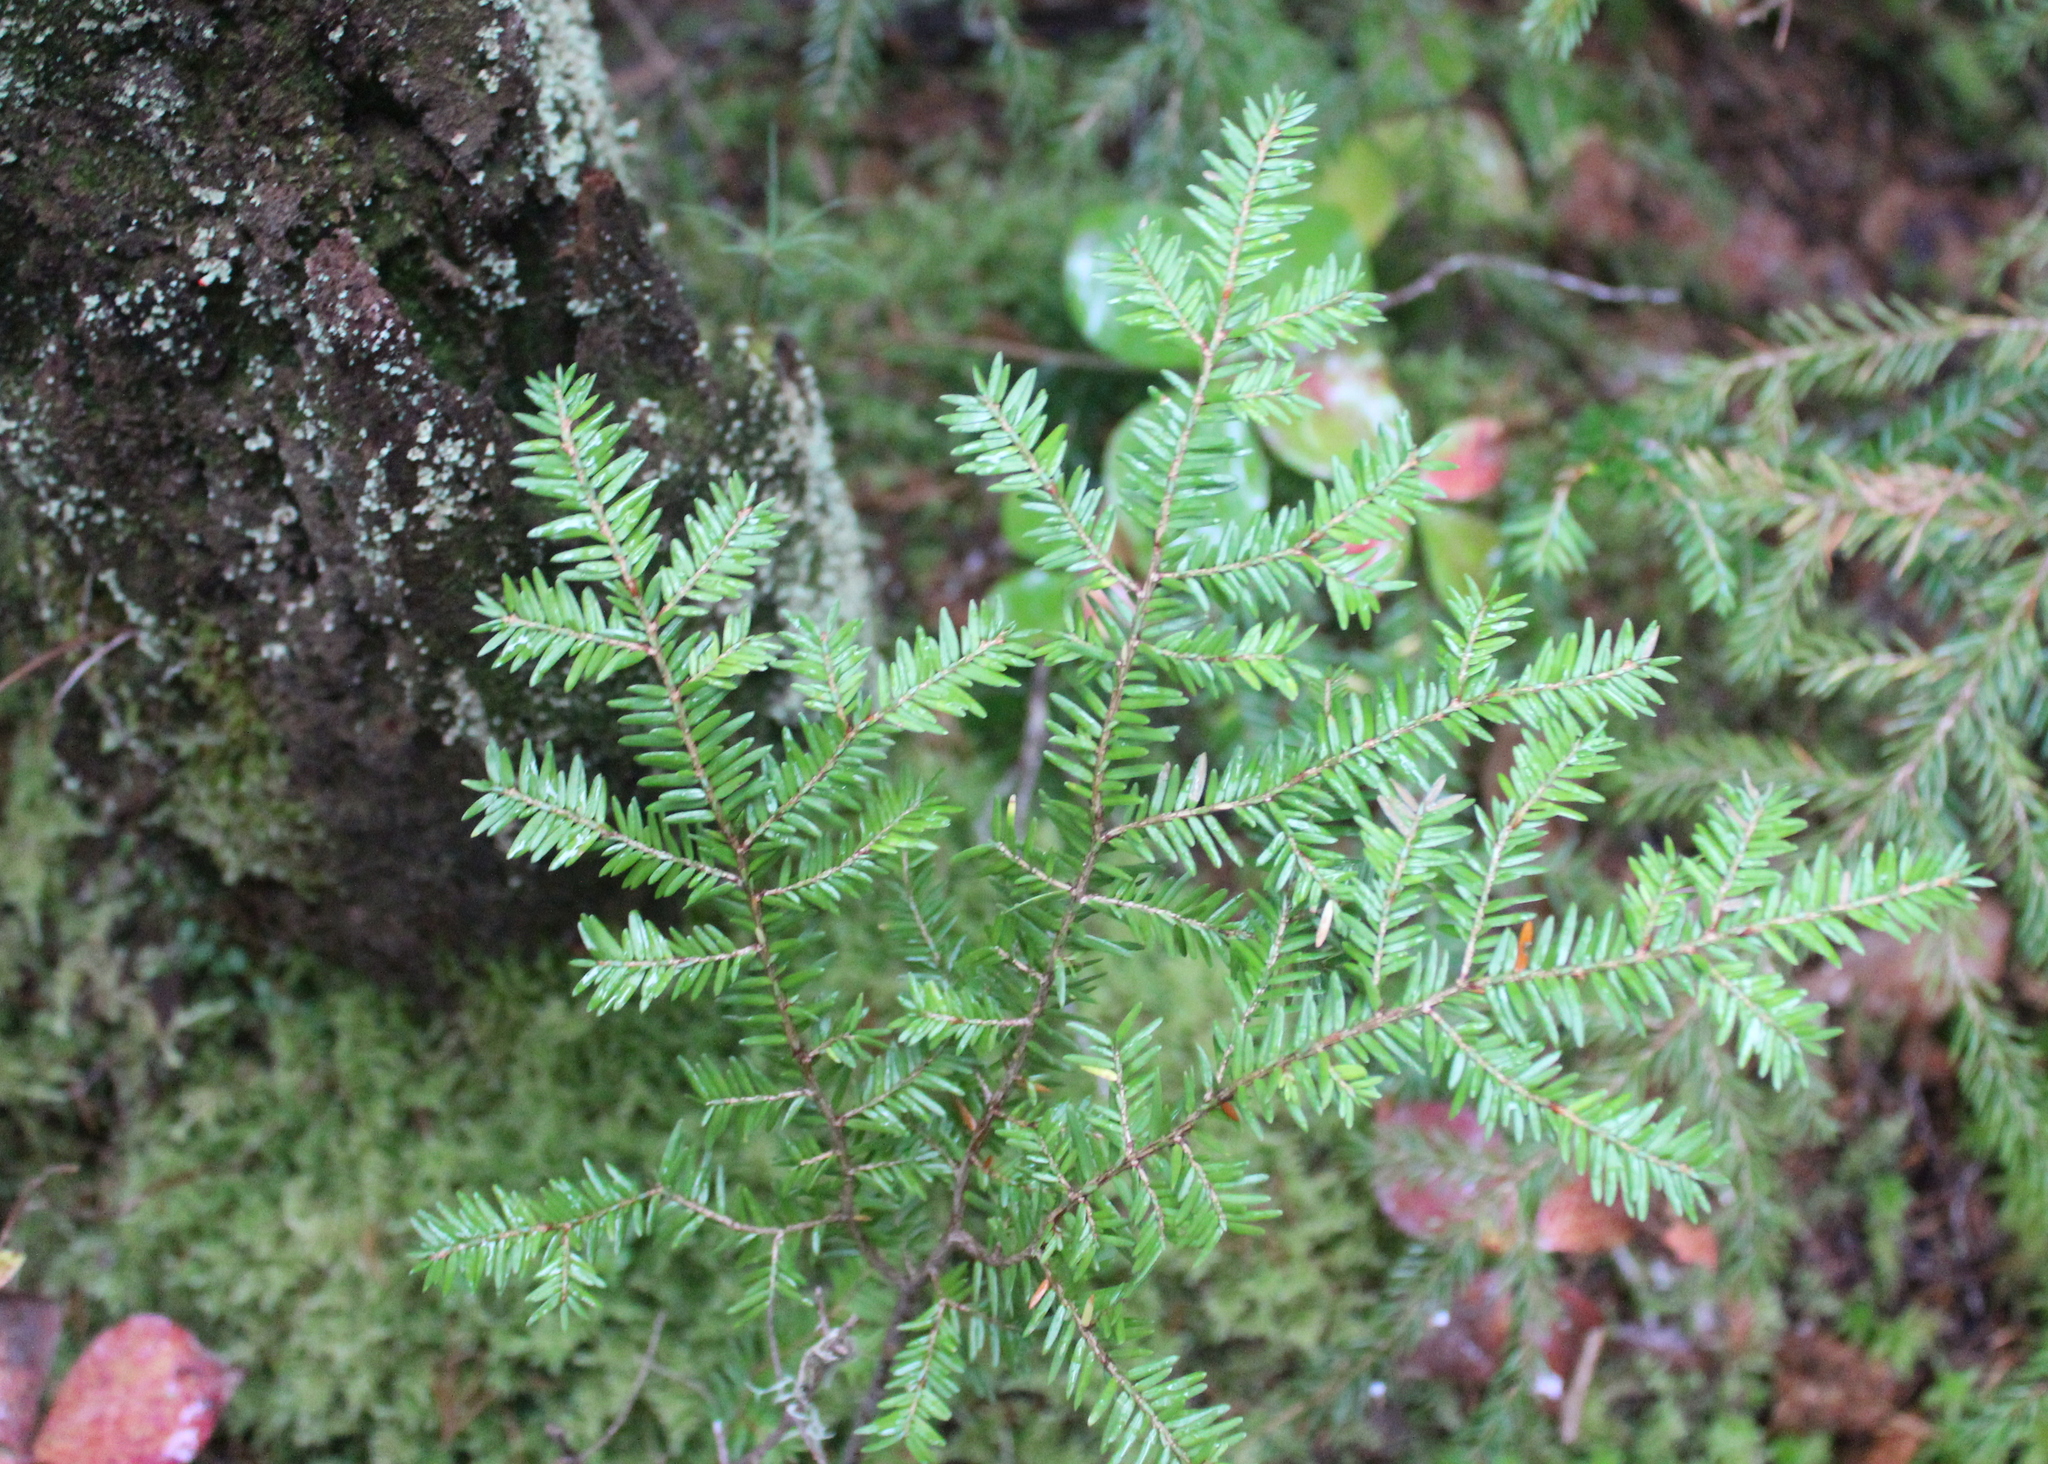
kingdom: Plantae
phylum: Tracheophyta
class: Pinopsida
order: Pinales
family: Pinaceae
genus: Tsuga
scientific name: Tsuga canadensis
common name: Eastern hemlock
